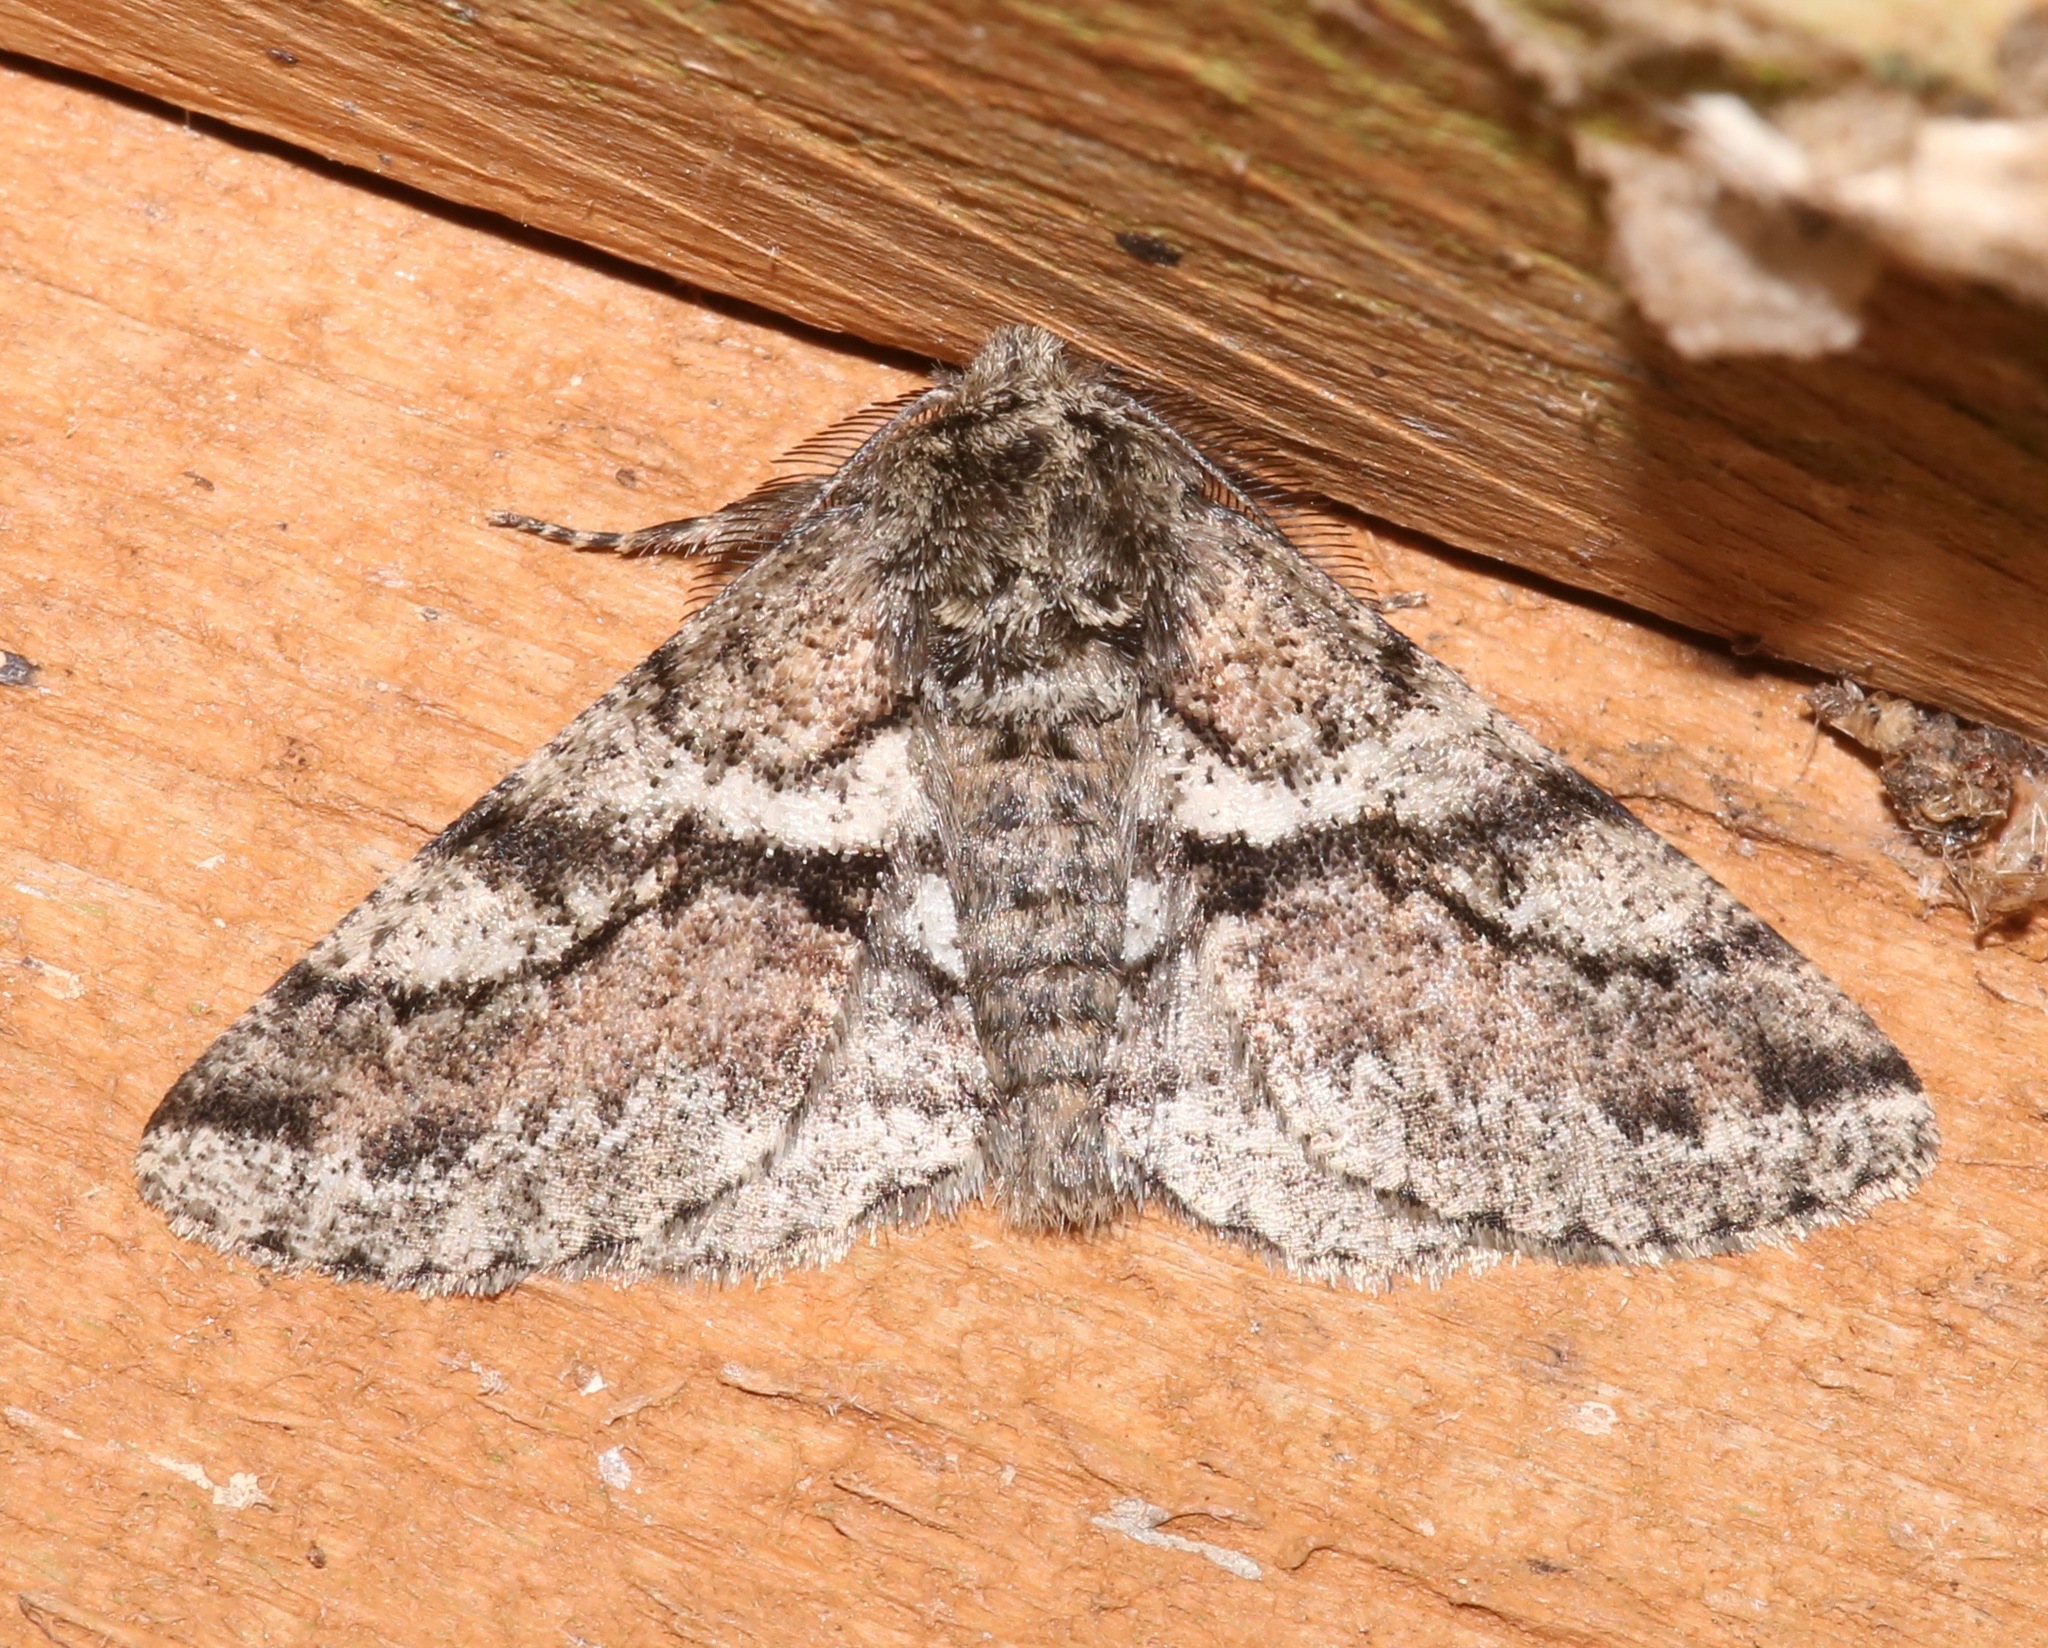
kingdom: Animalia
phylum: Arthropoda
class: Insecta
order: Lepidoptera
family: Geometridae
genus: Lycia
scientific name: Lycia ypsilon
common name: Wooly gray
